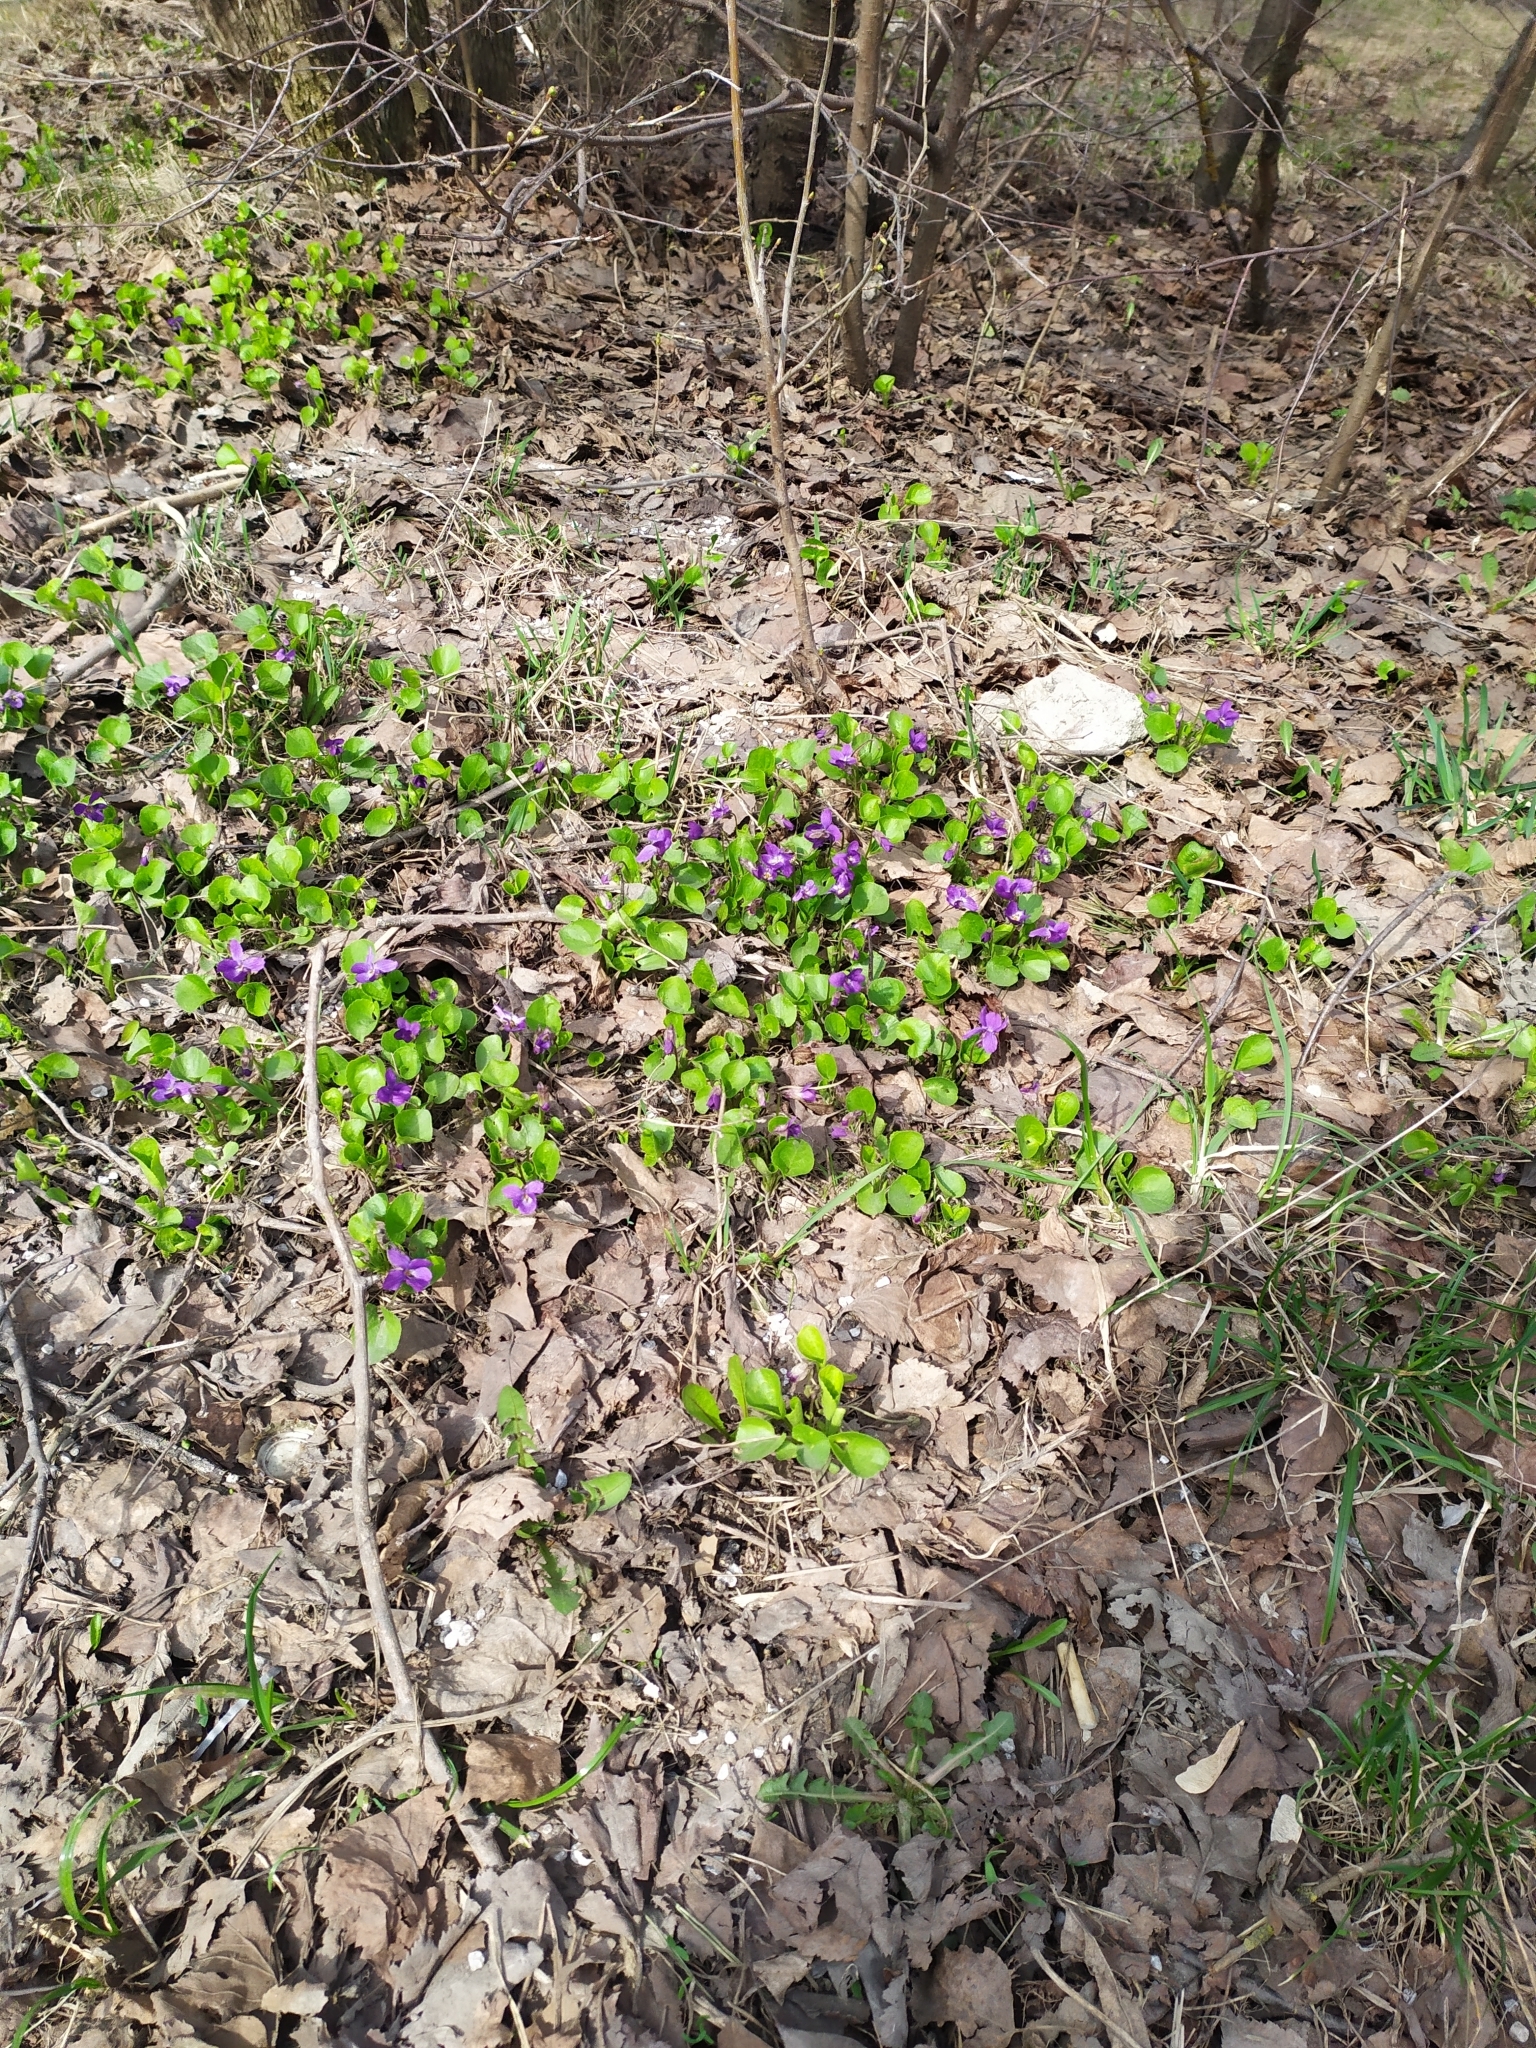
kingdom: Plantae
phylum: Tracheophyta
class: Magnoliopsida
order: Malpighiales
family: Violaceae
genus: Viola
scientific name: Viola odorata
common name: Sweet violet
